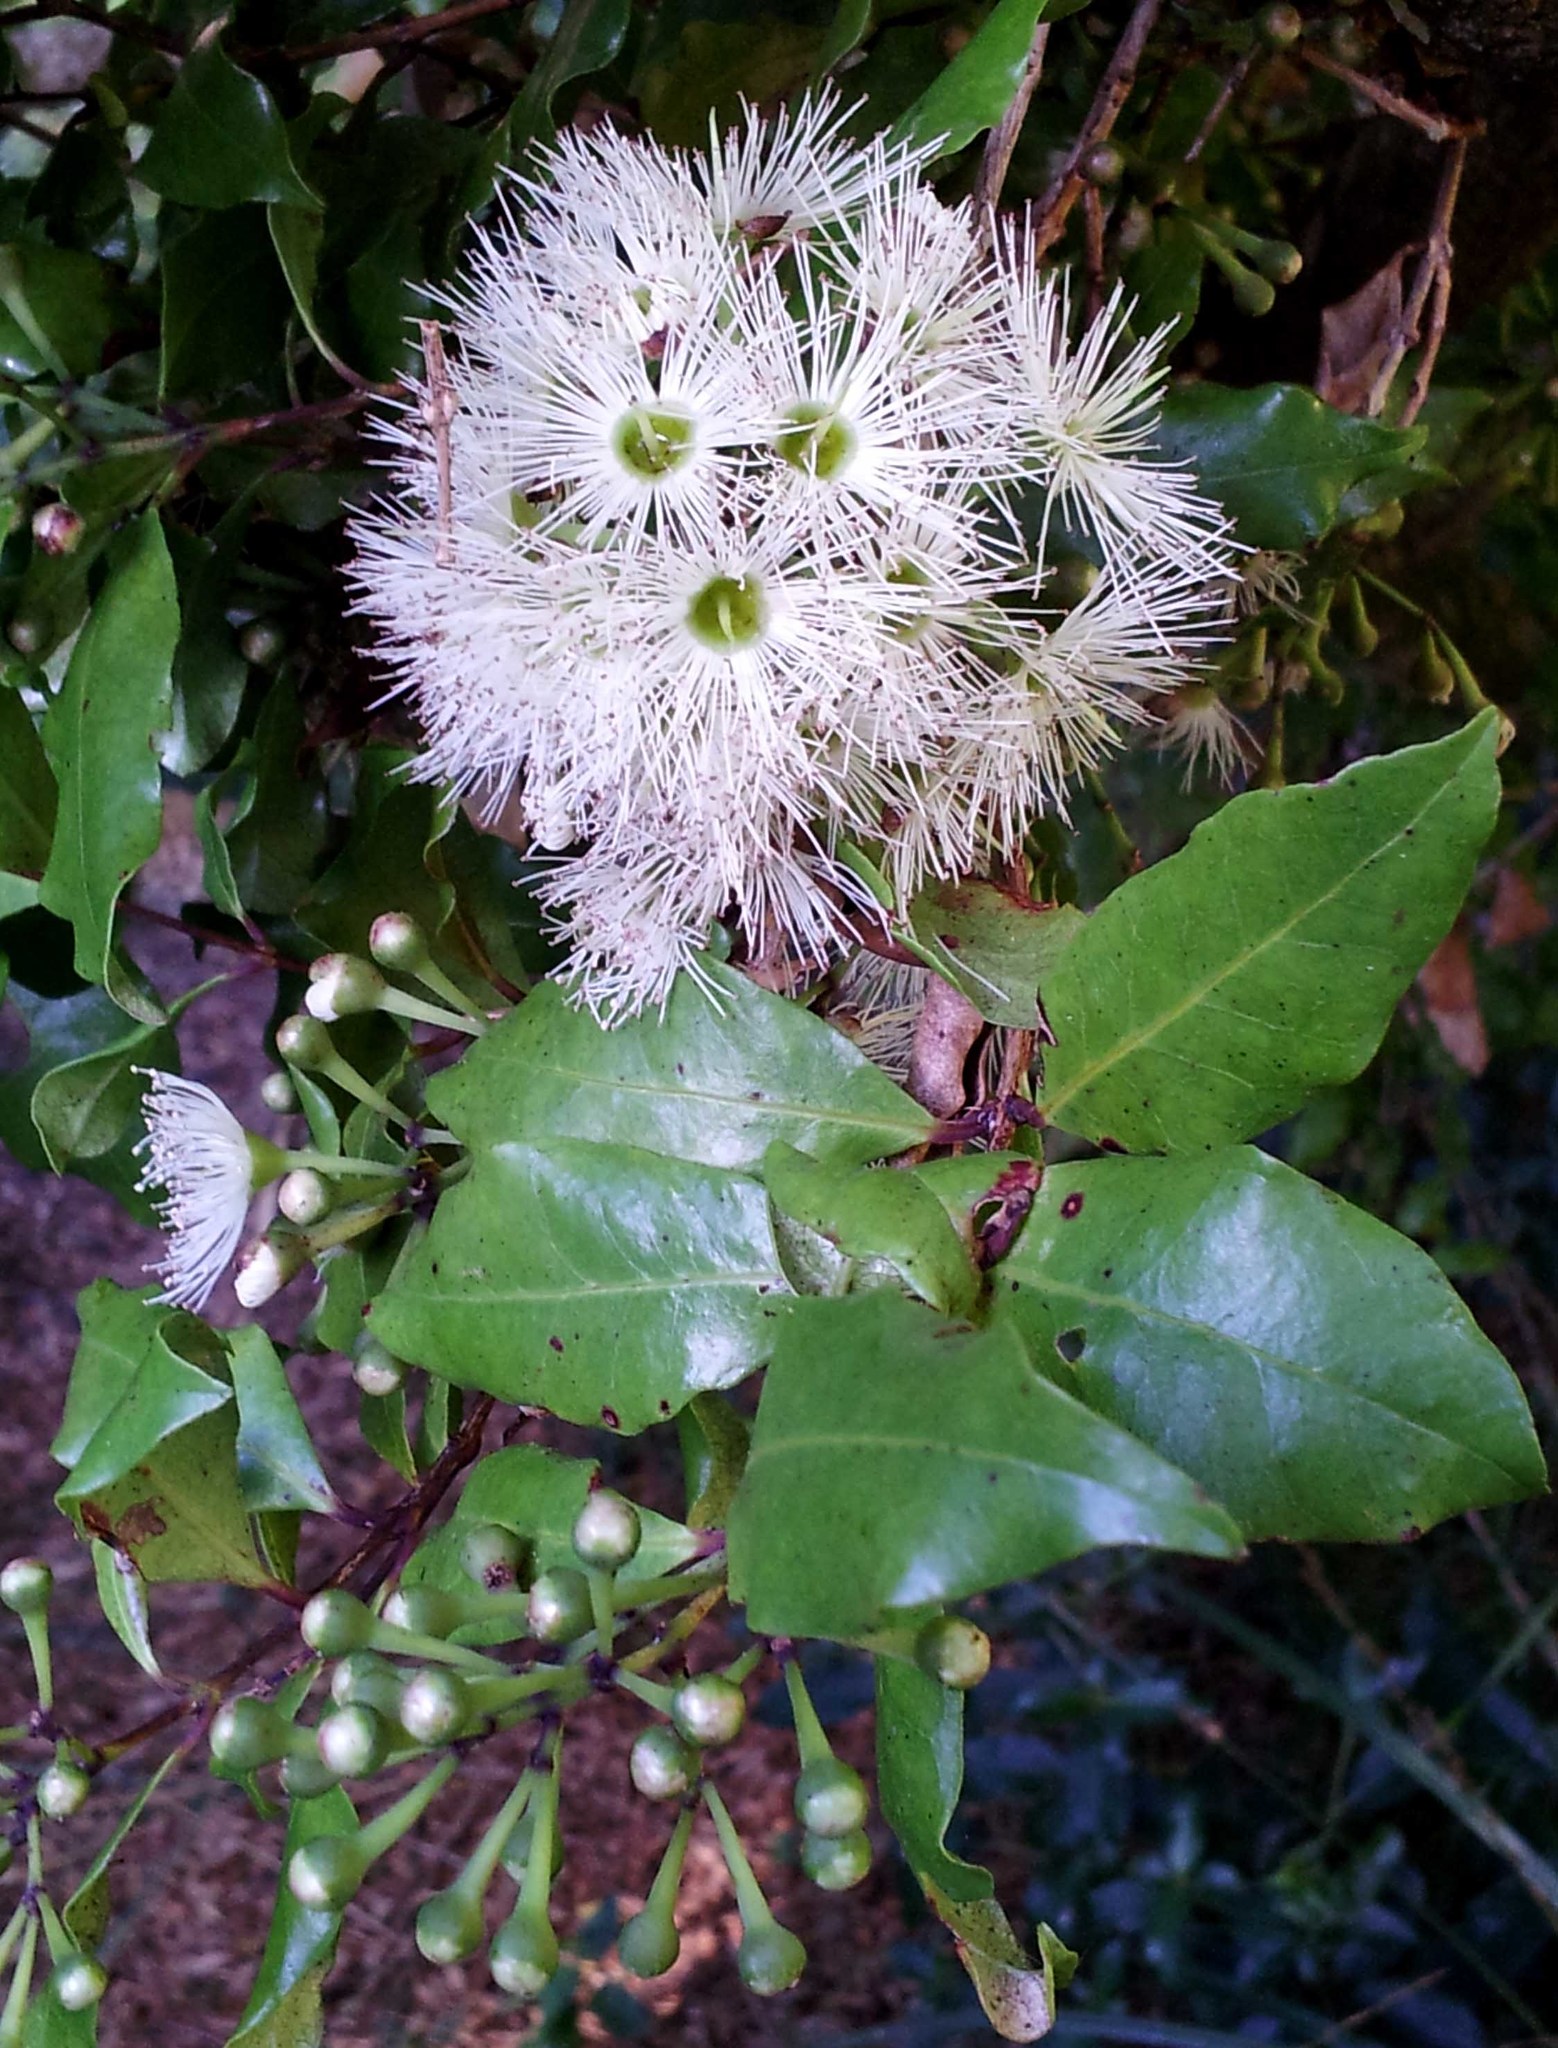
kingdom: Plantae
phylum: Tracheophyta
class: Magnoliopsida
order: Myrtales
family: Myrtaceae
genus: Syzygium
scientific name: Syzygium maire
